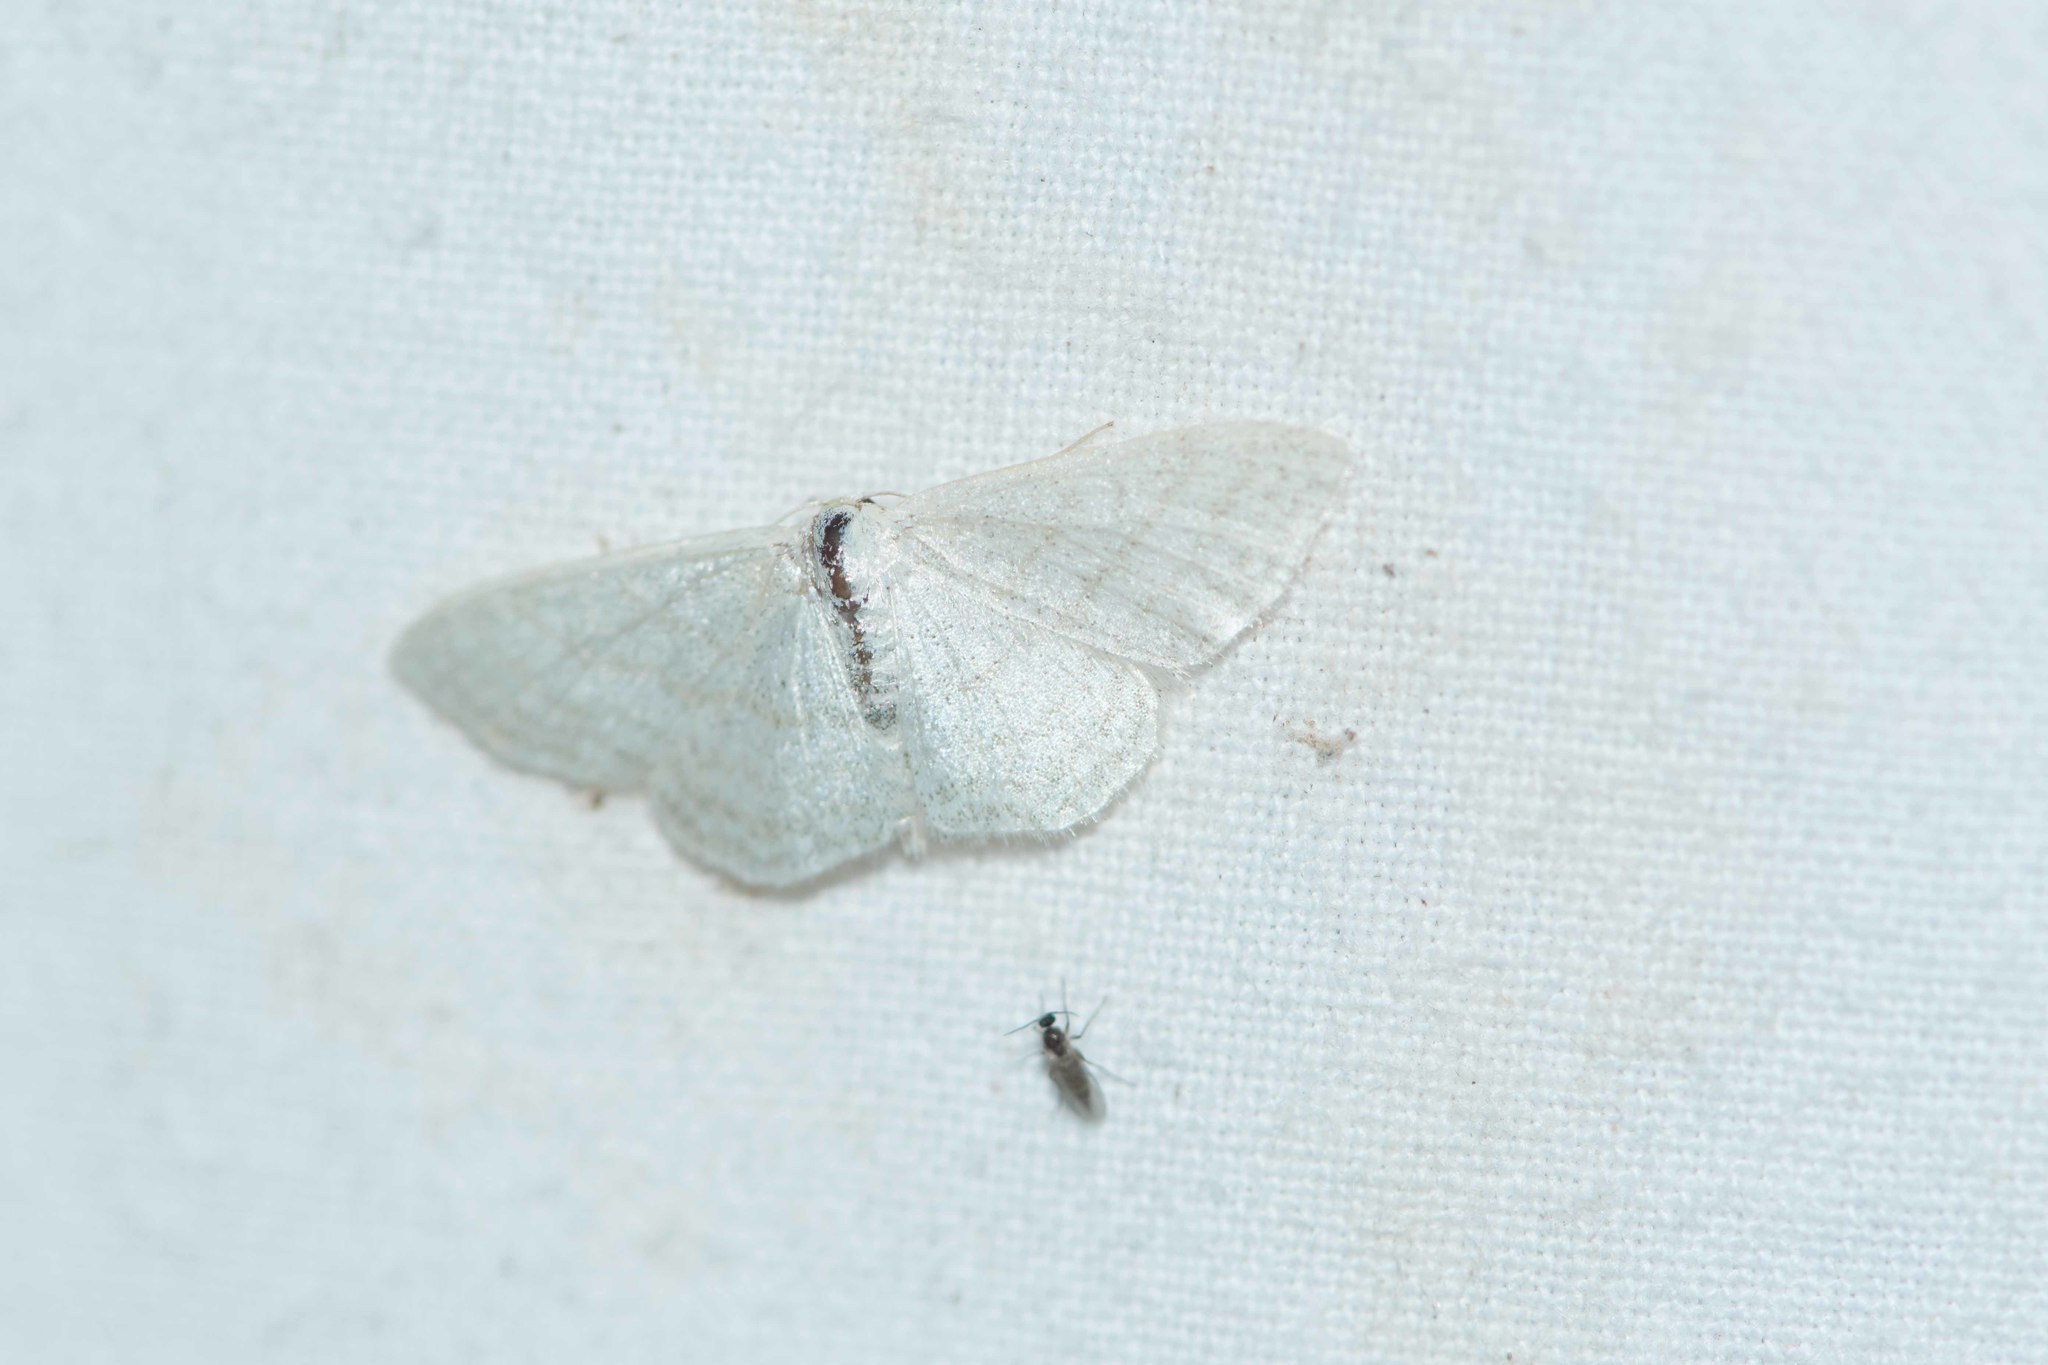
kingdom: Animalia
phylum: Arthropoda
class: Insecta
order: Lepidoptera
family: Geometridae
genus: Idaea
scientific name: Idaea subsericeata
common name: Satin wave
